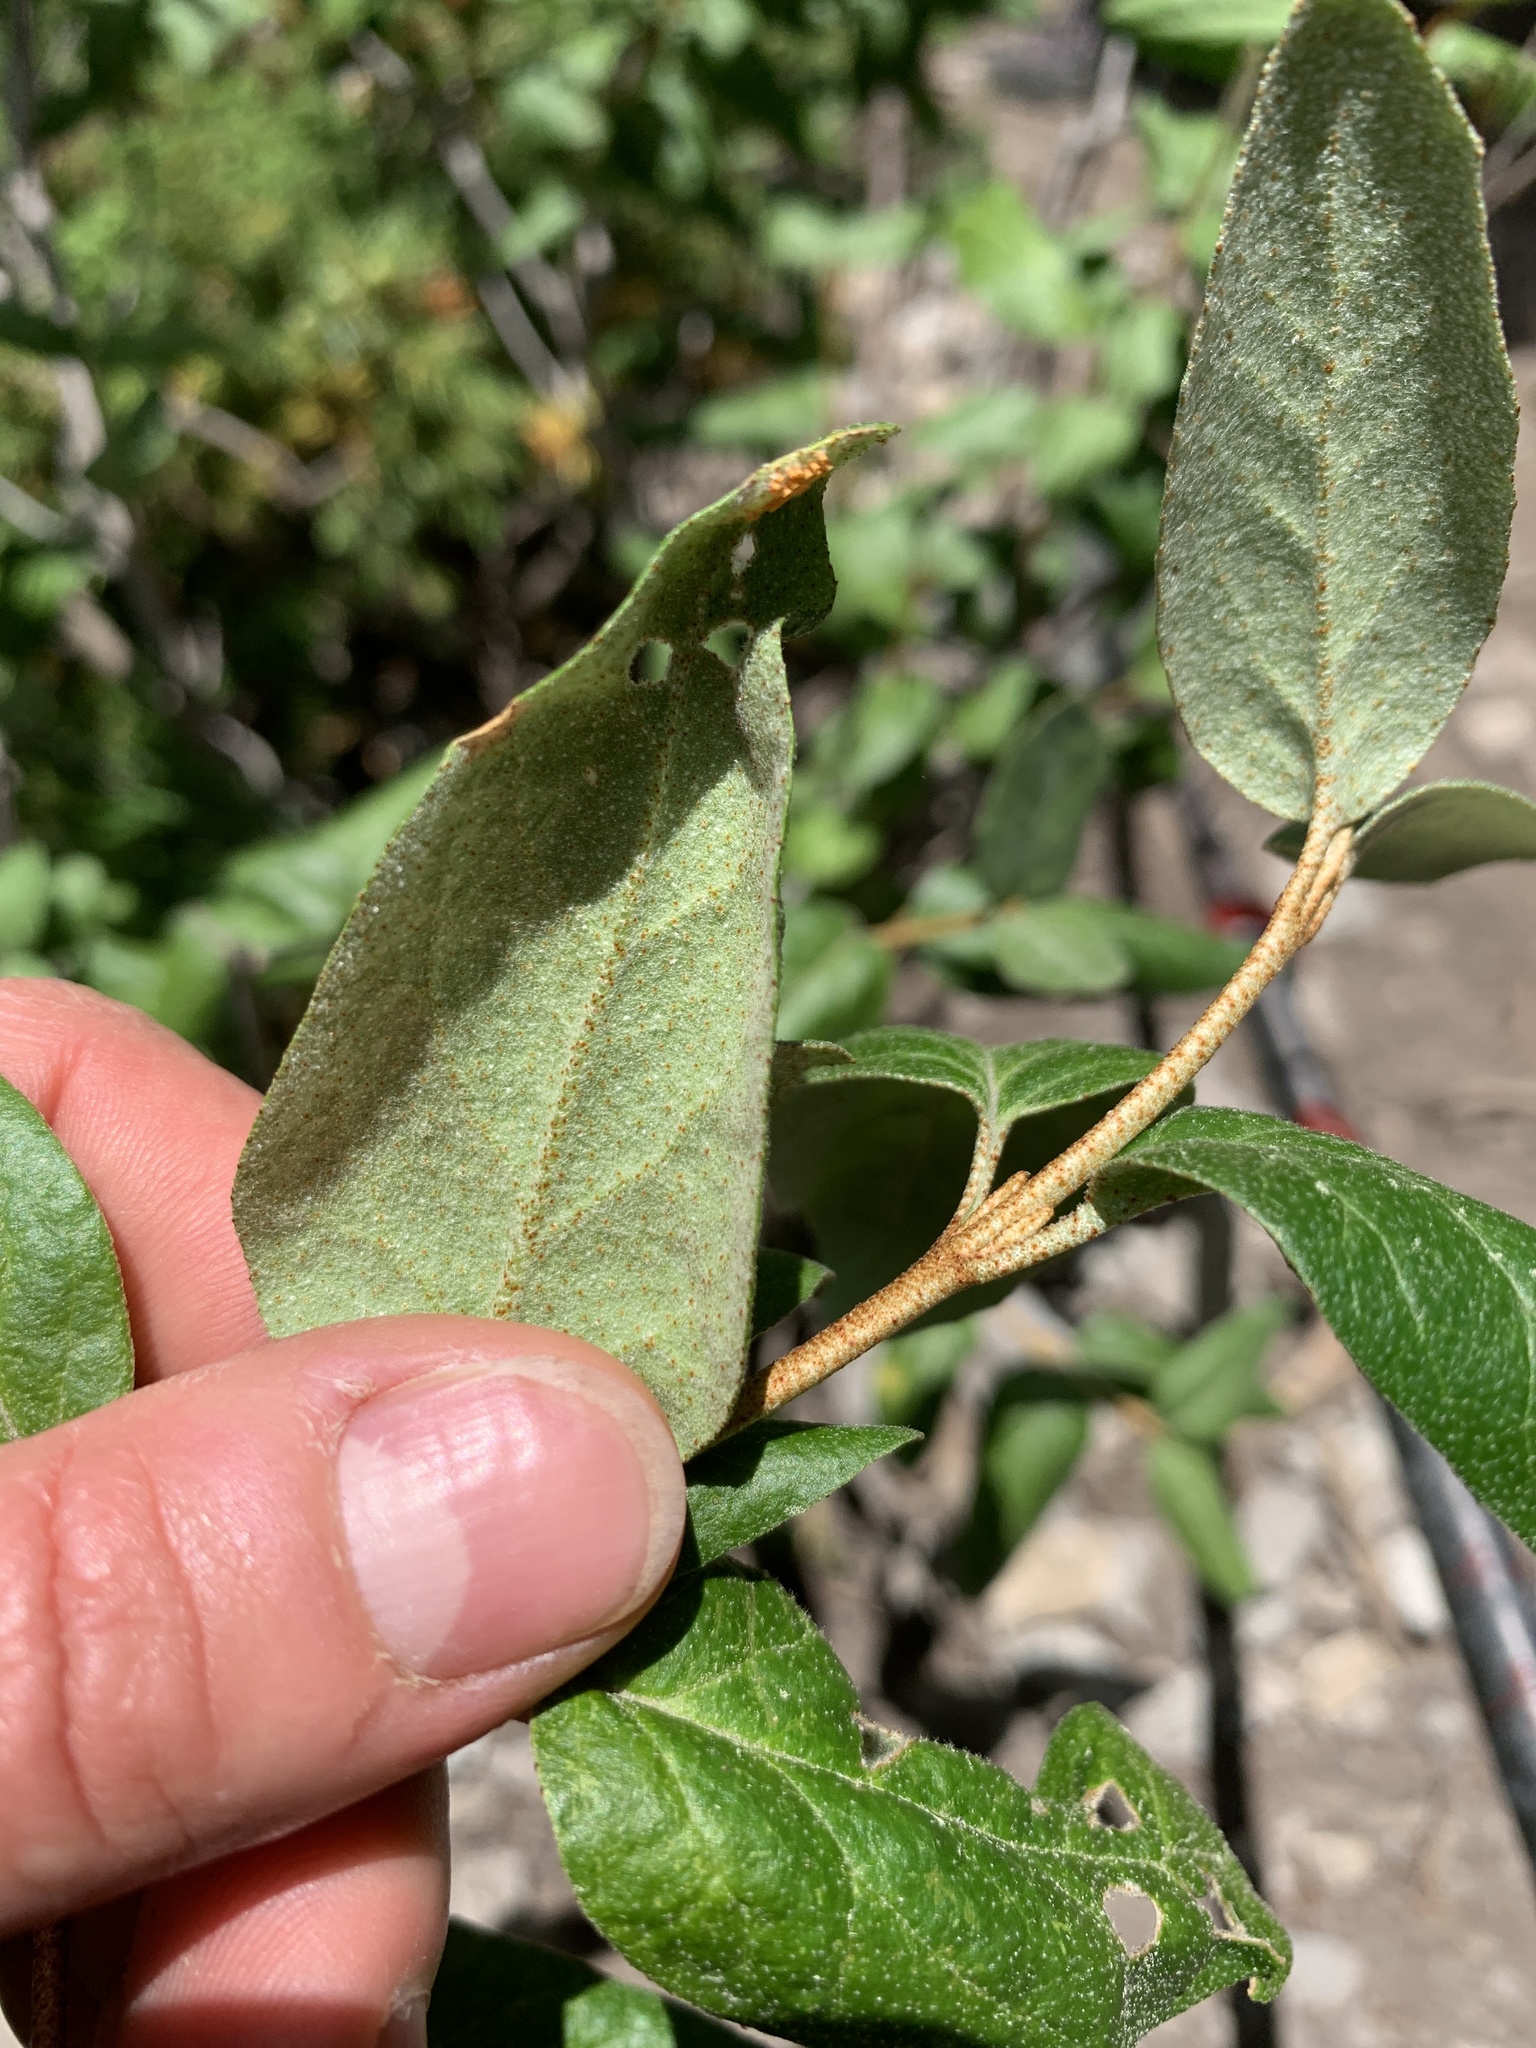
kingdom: Plantae
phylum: Tracheophyta
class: Magnoliopsida
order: Rosales
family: Elaeagnaceae
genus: Shepherdia
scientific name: Shepherdia canadensis
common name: Soapberry
